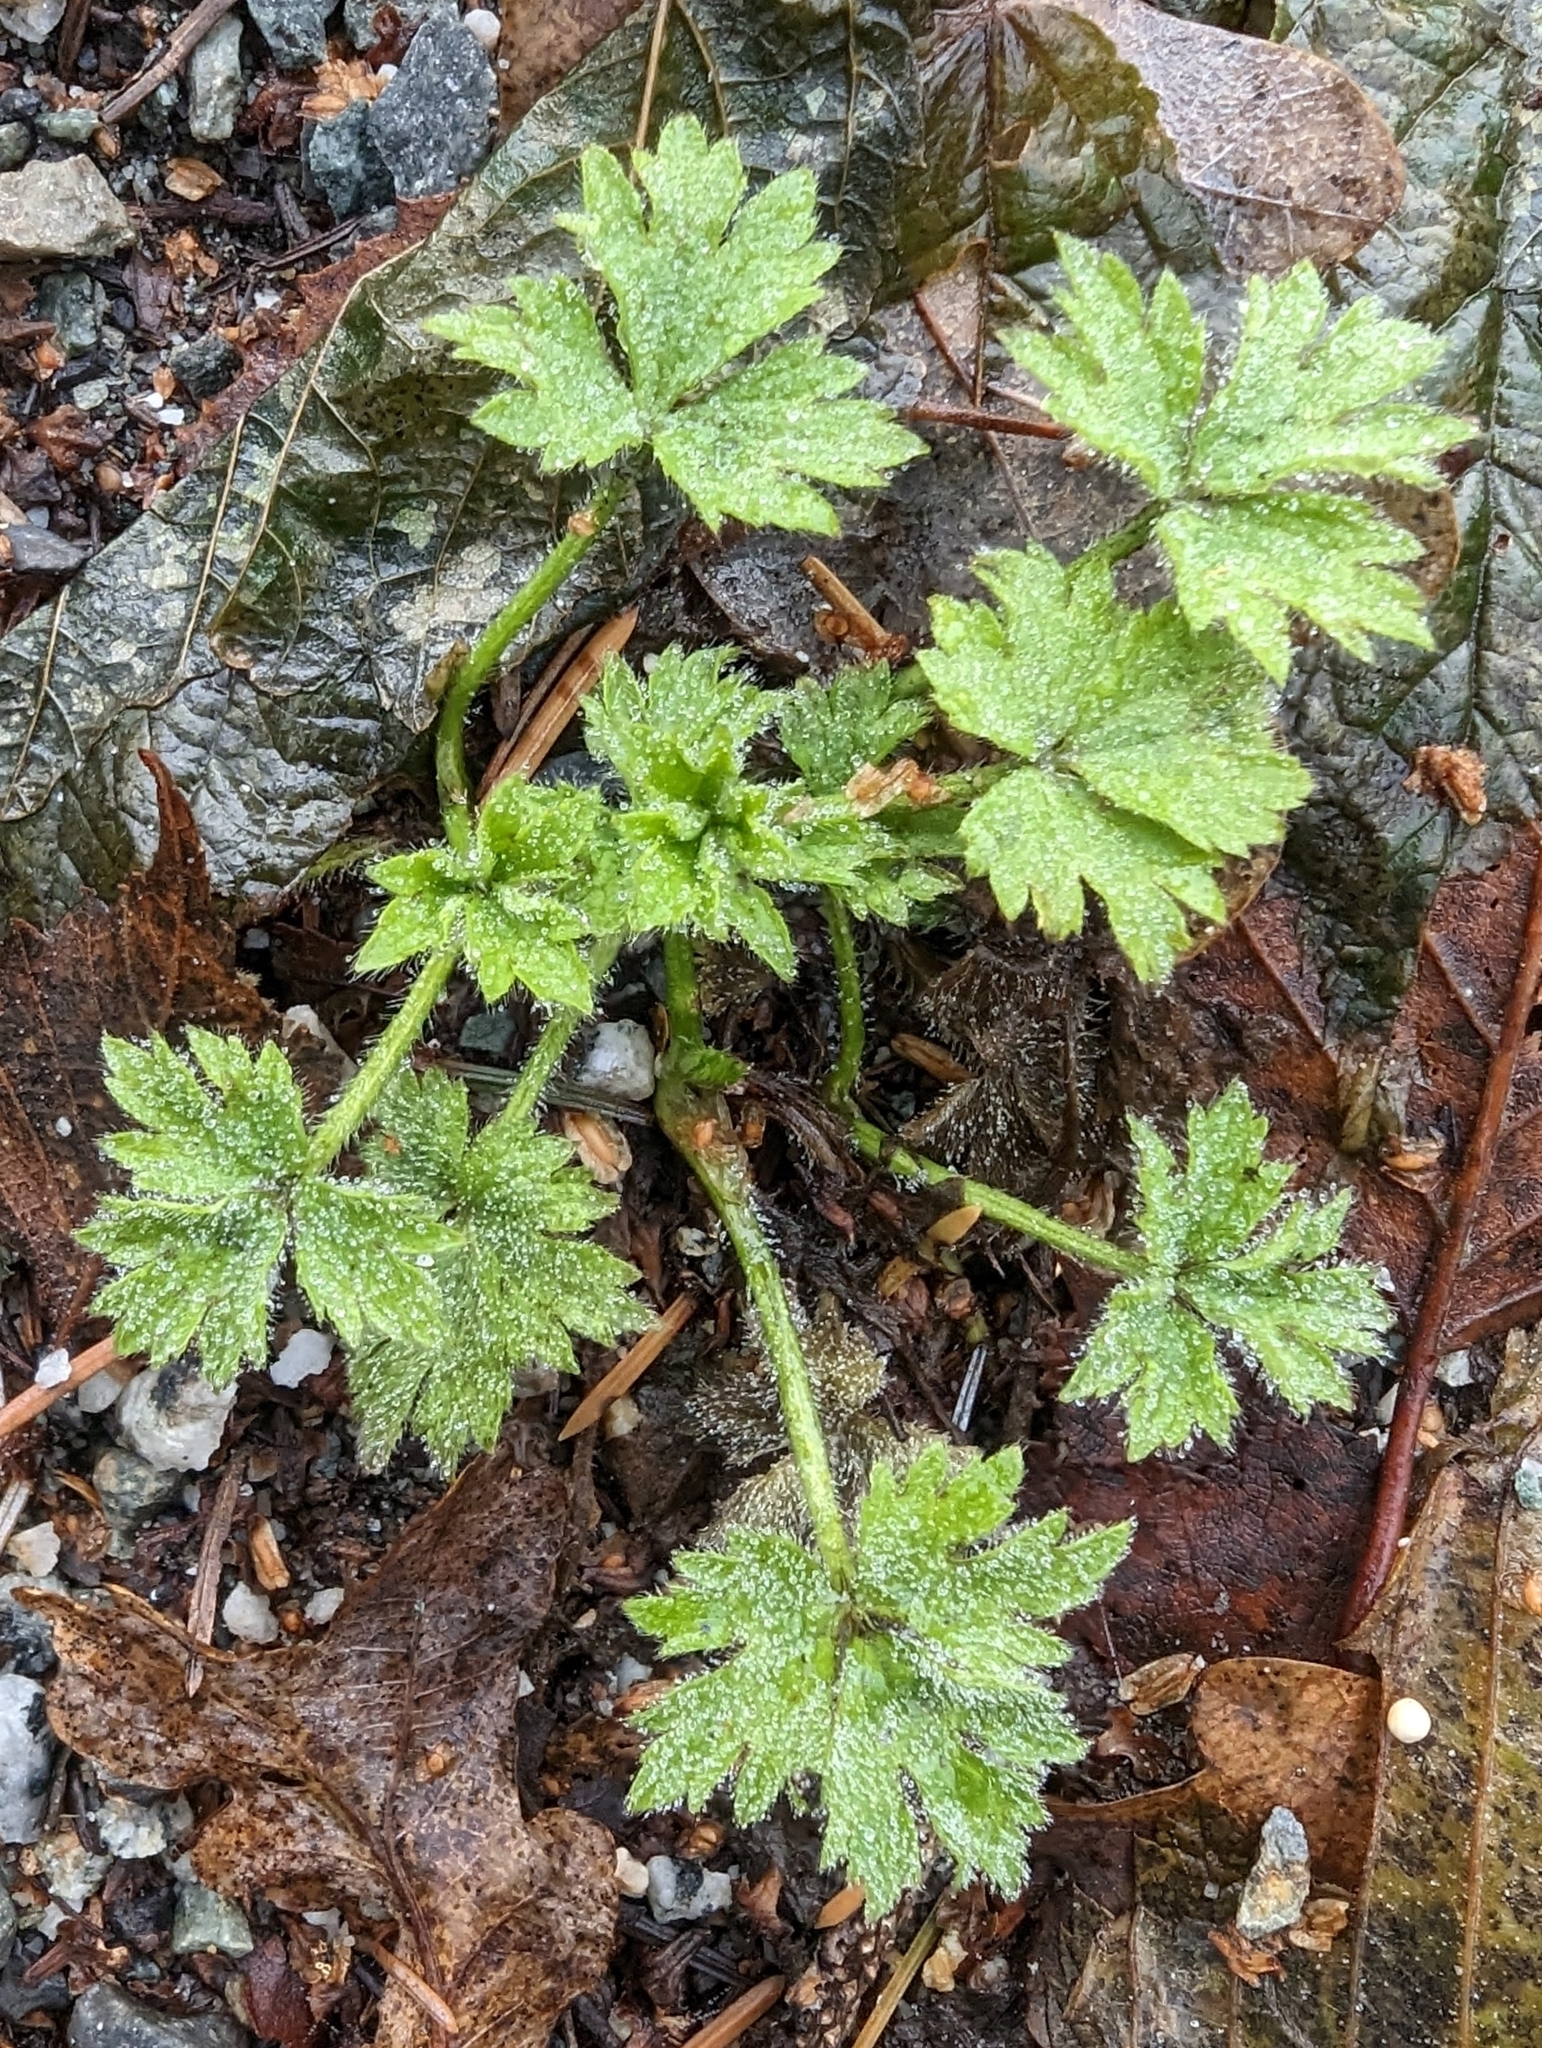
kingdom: Plantae
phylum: Tracheophyta
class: Magnoliopsida
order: Ranunculales
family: Ranunculaceae
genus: Ranunculus
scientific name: Ranunculus repens
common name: Creeping buttercup
